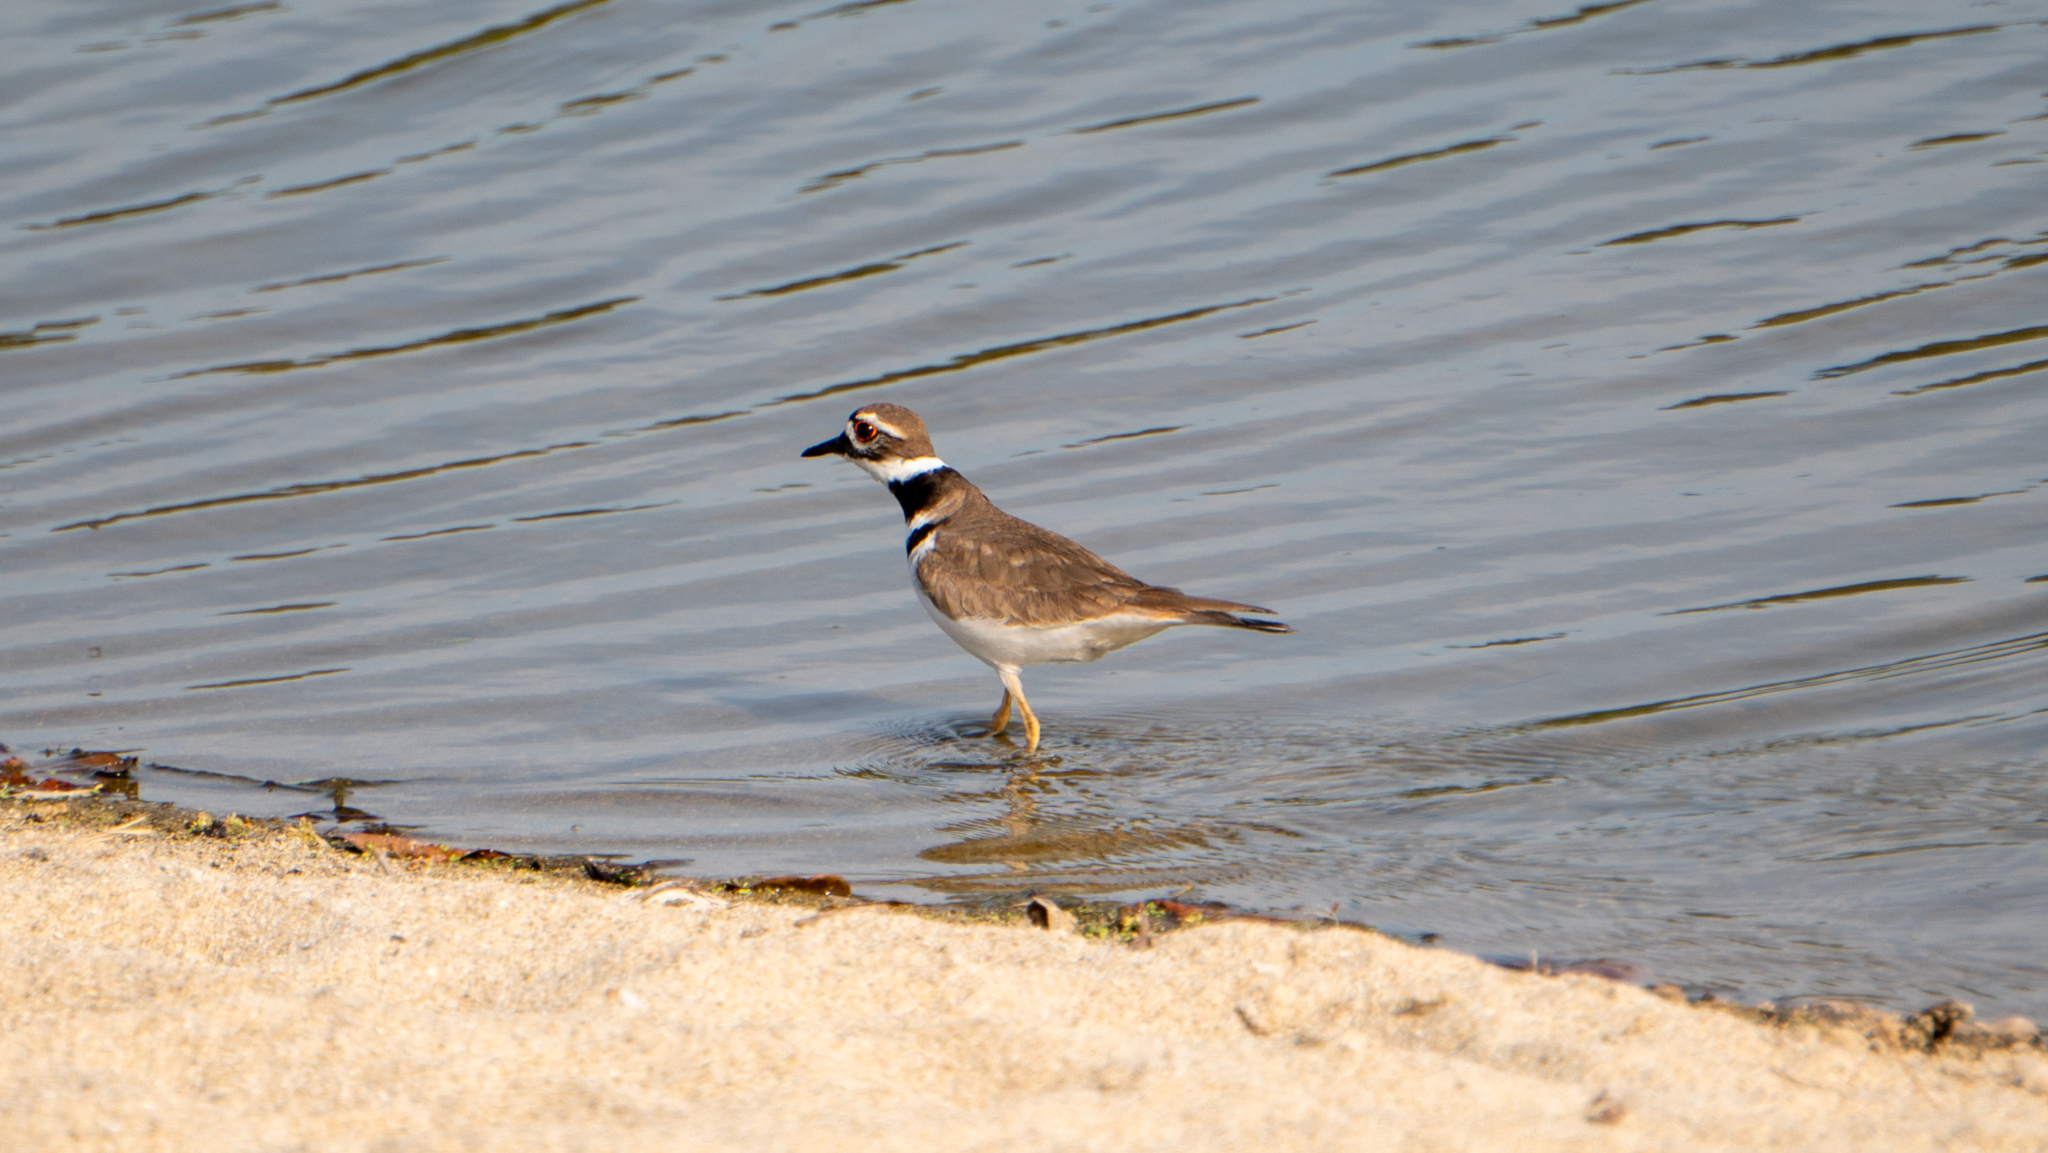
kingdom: Animalia
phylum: Chordata
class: Aves
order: Charadriiformes
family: Charadriidae
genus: Charadrius
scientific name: Charadrius vociferus
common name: Killdeer
